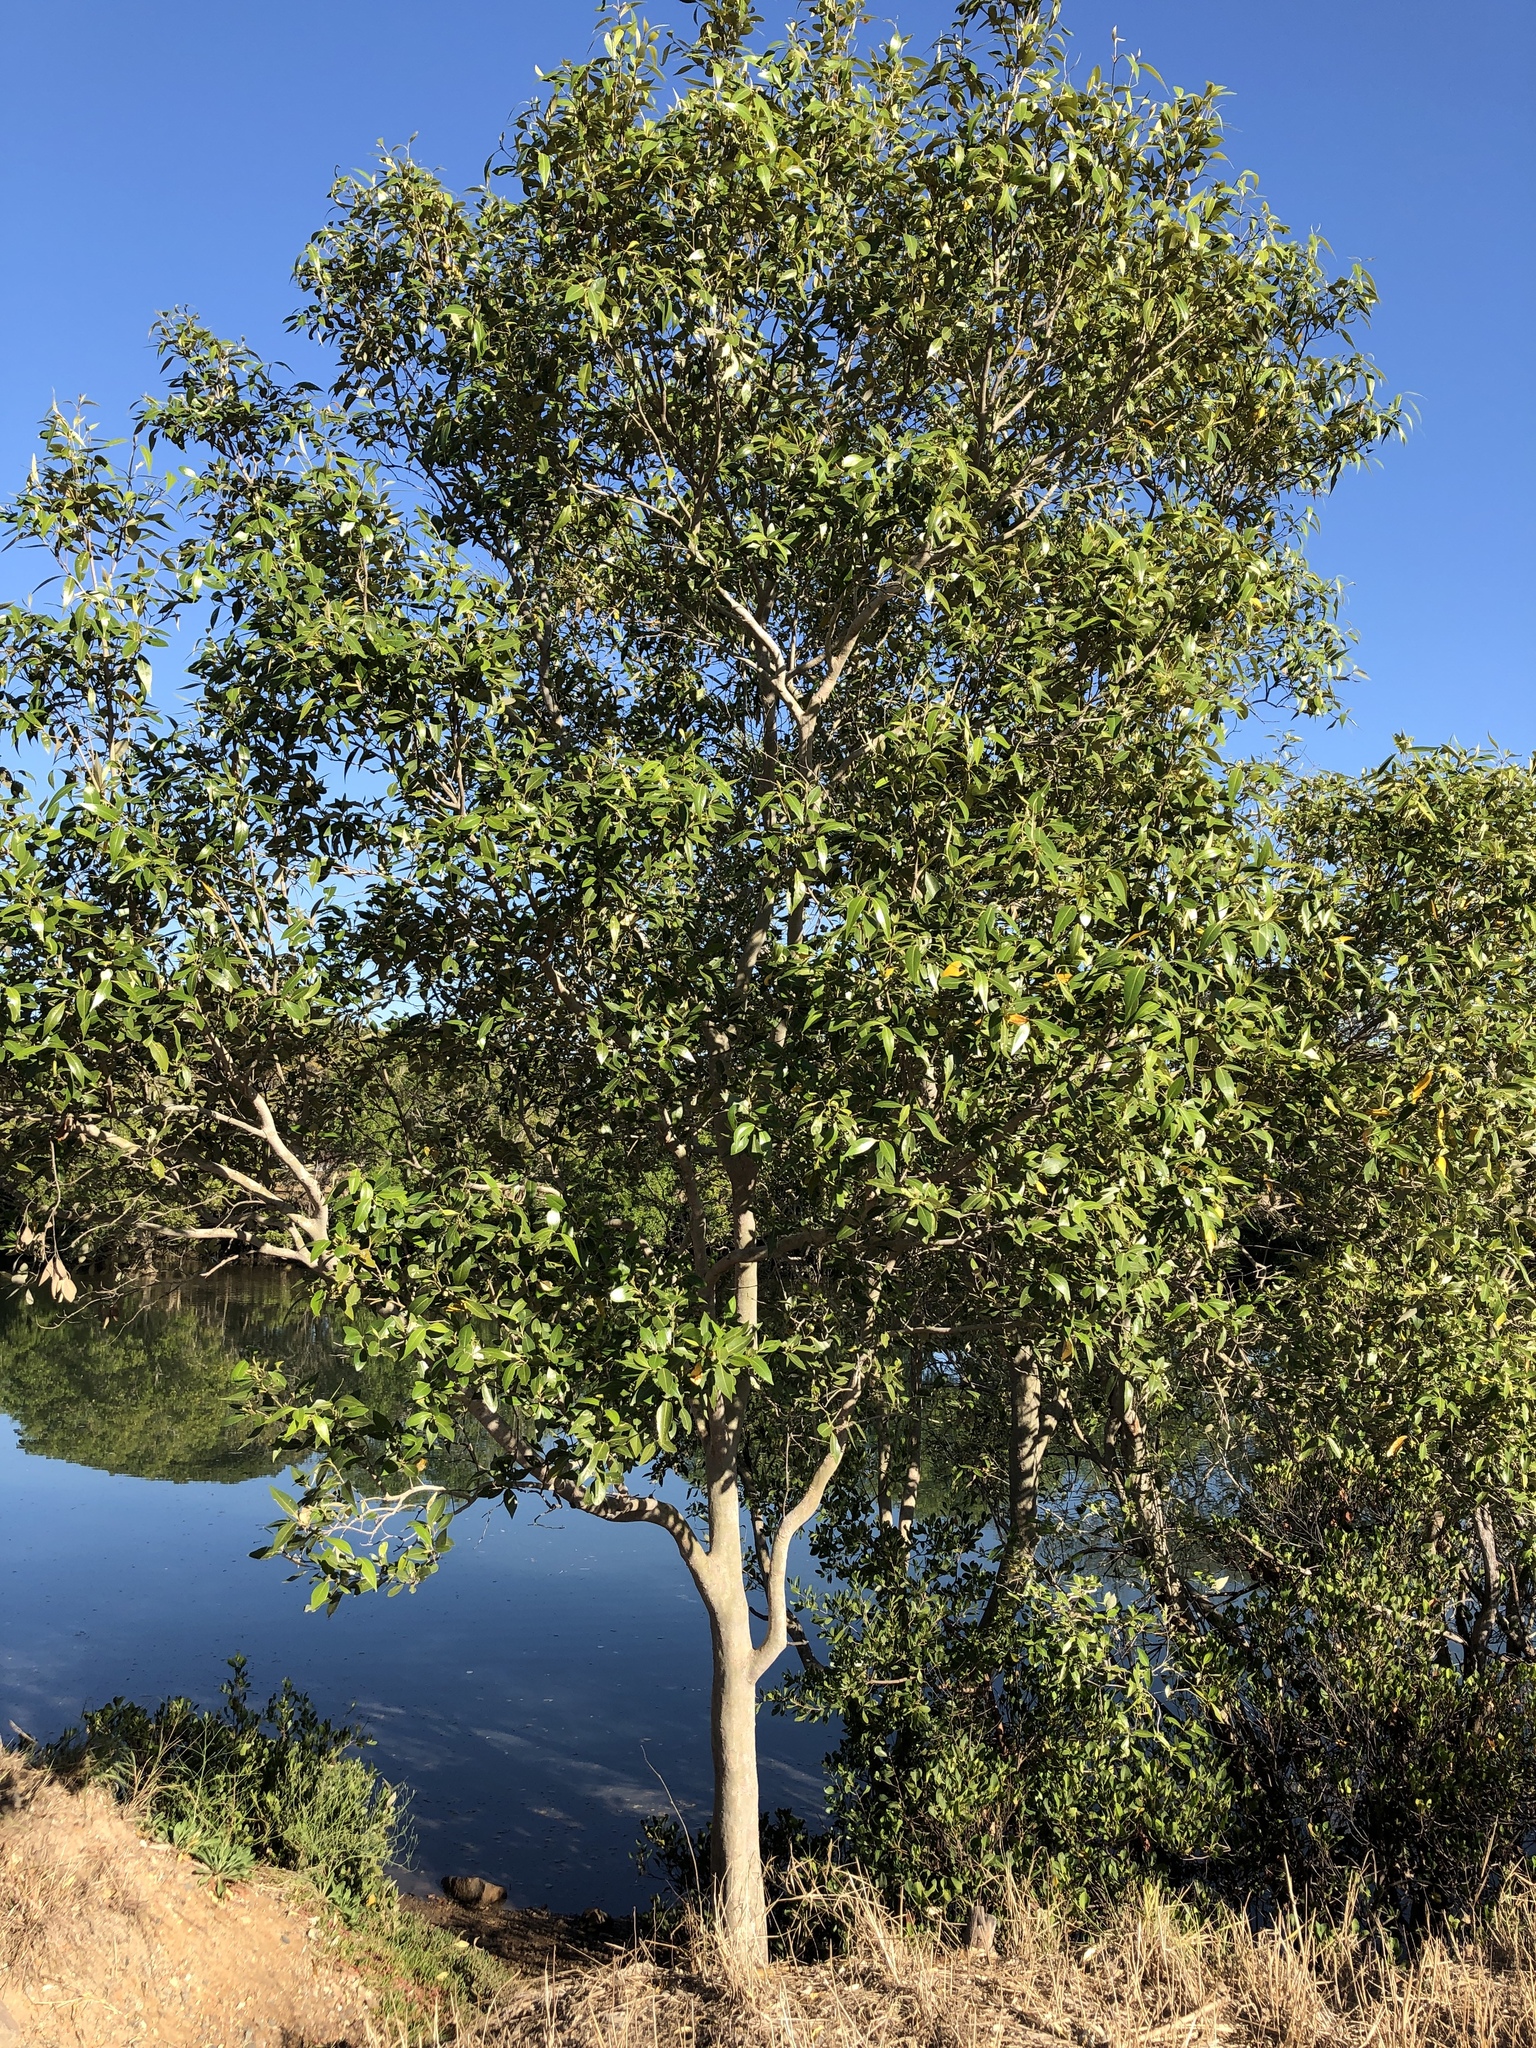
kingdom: Plantae
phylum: Tracheophyta
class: Magnoliopsida
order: Lamiales
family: Acanthaceae
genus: Avicennia
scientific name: Avicennia marina
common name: Gray mangrove
